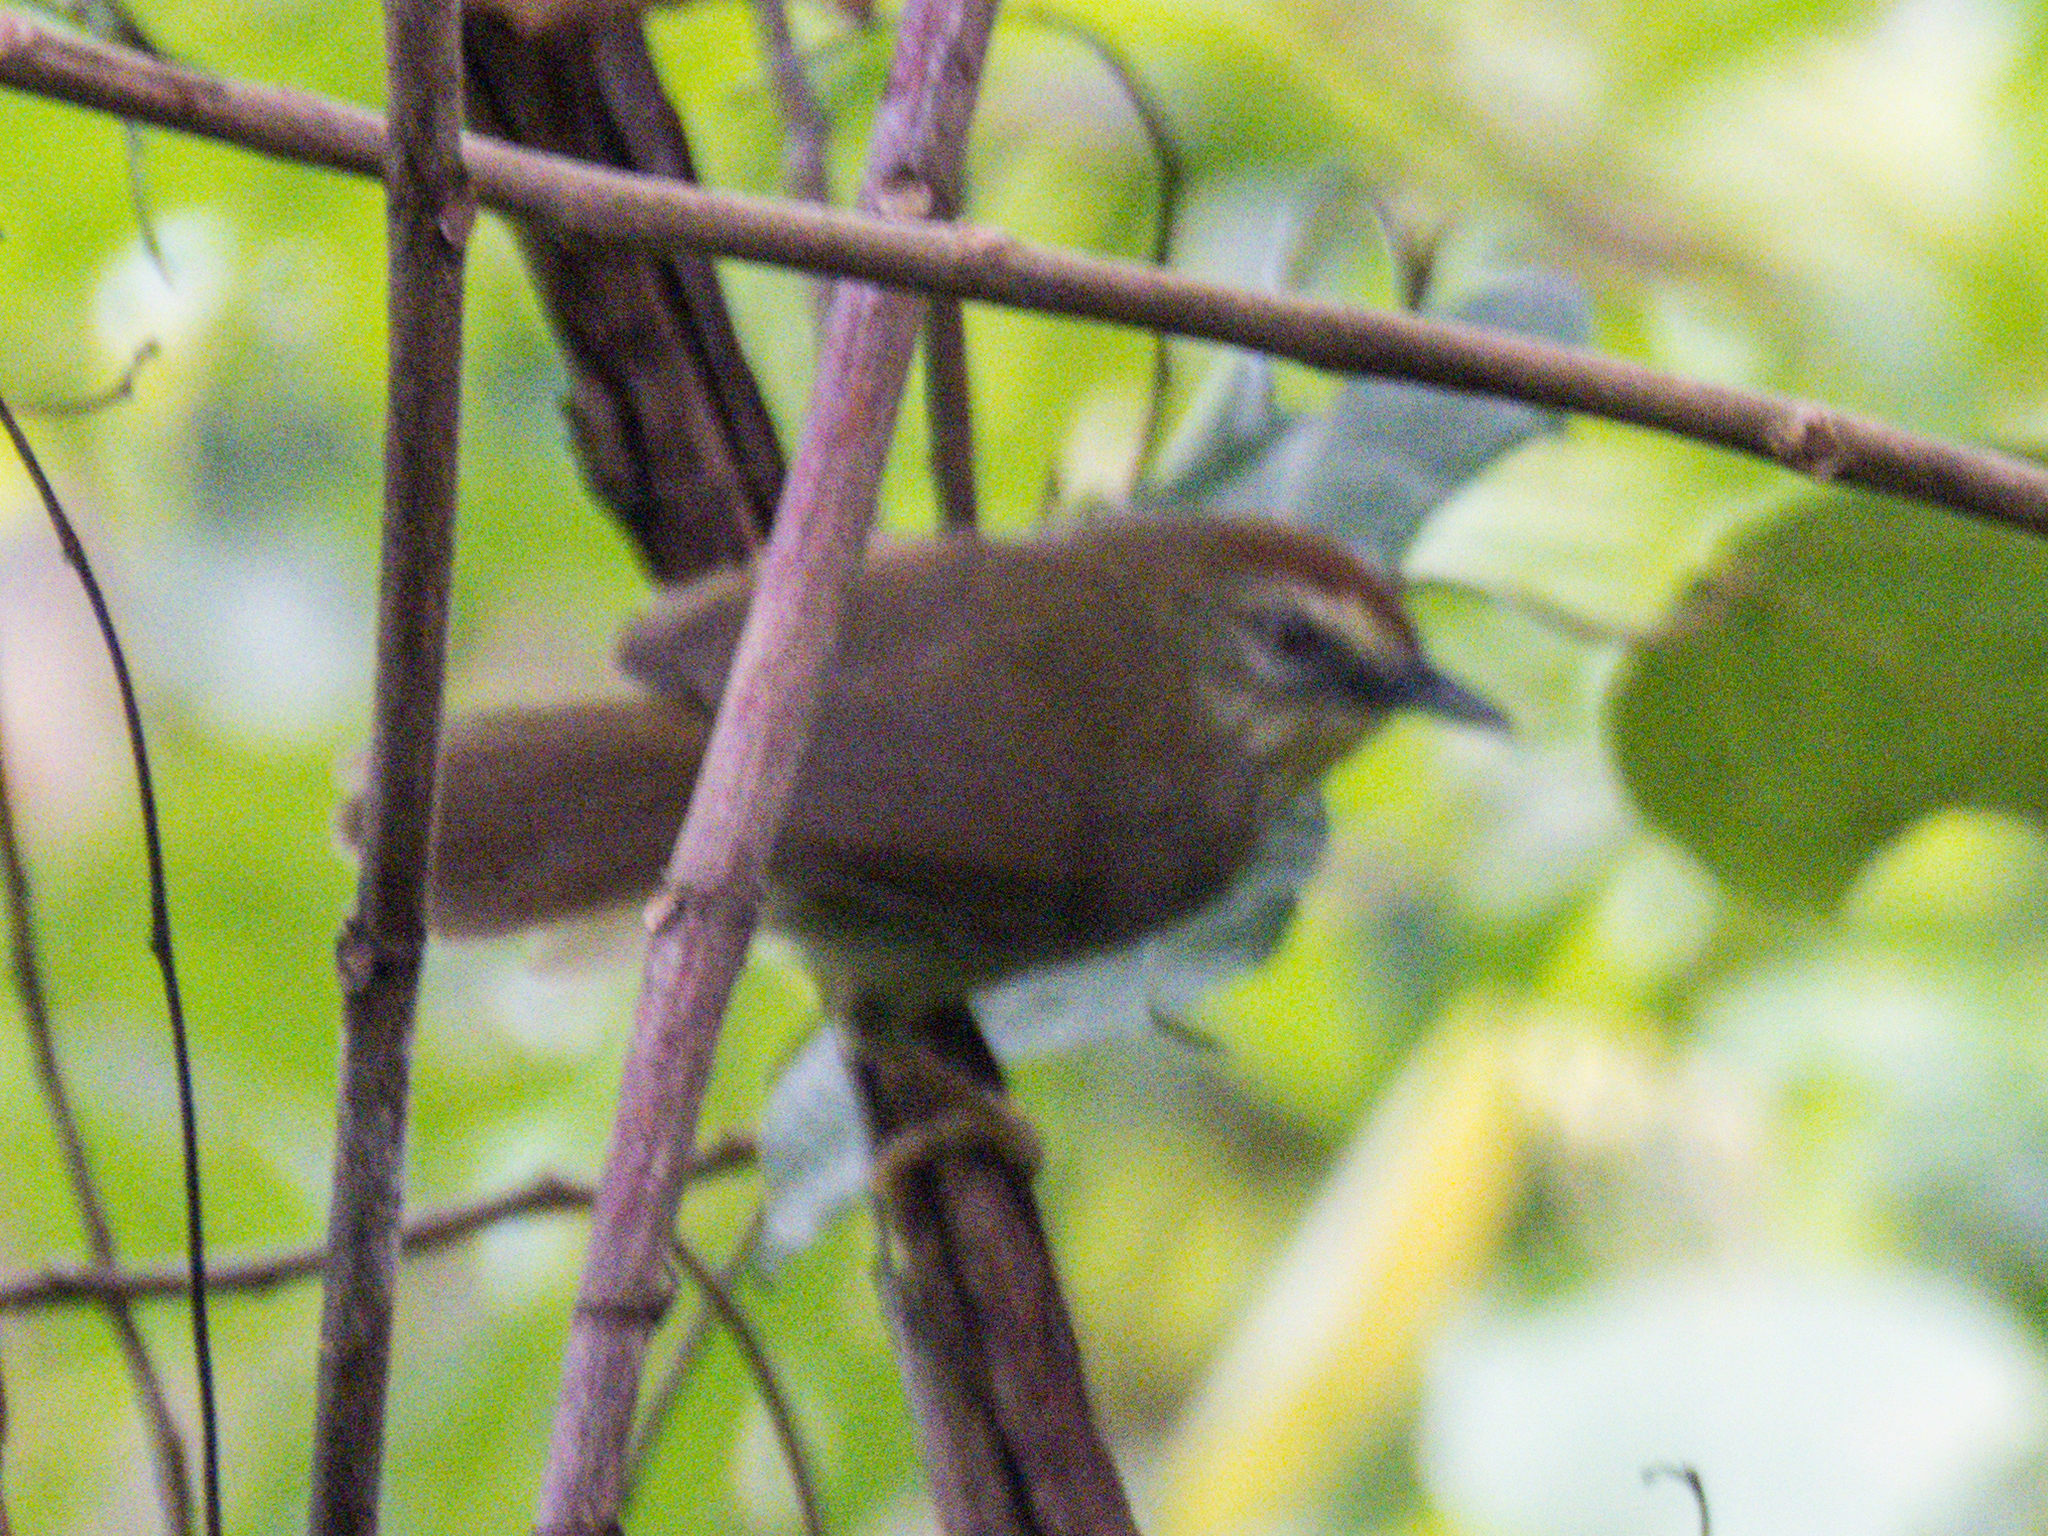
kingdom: Animalia
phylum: Chordata
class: Aves
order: Passeriformes
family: Timaliidae
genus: Macronus
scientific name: Macronus gularis
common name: Striped tit-babbler
